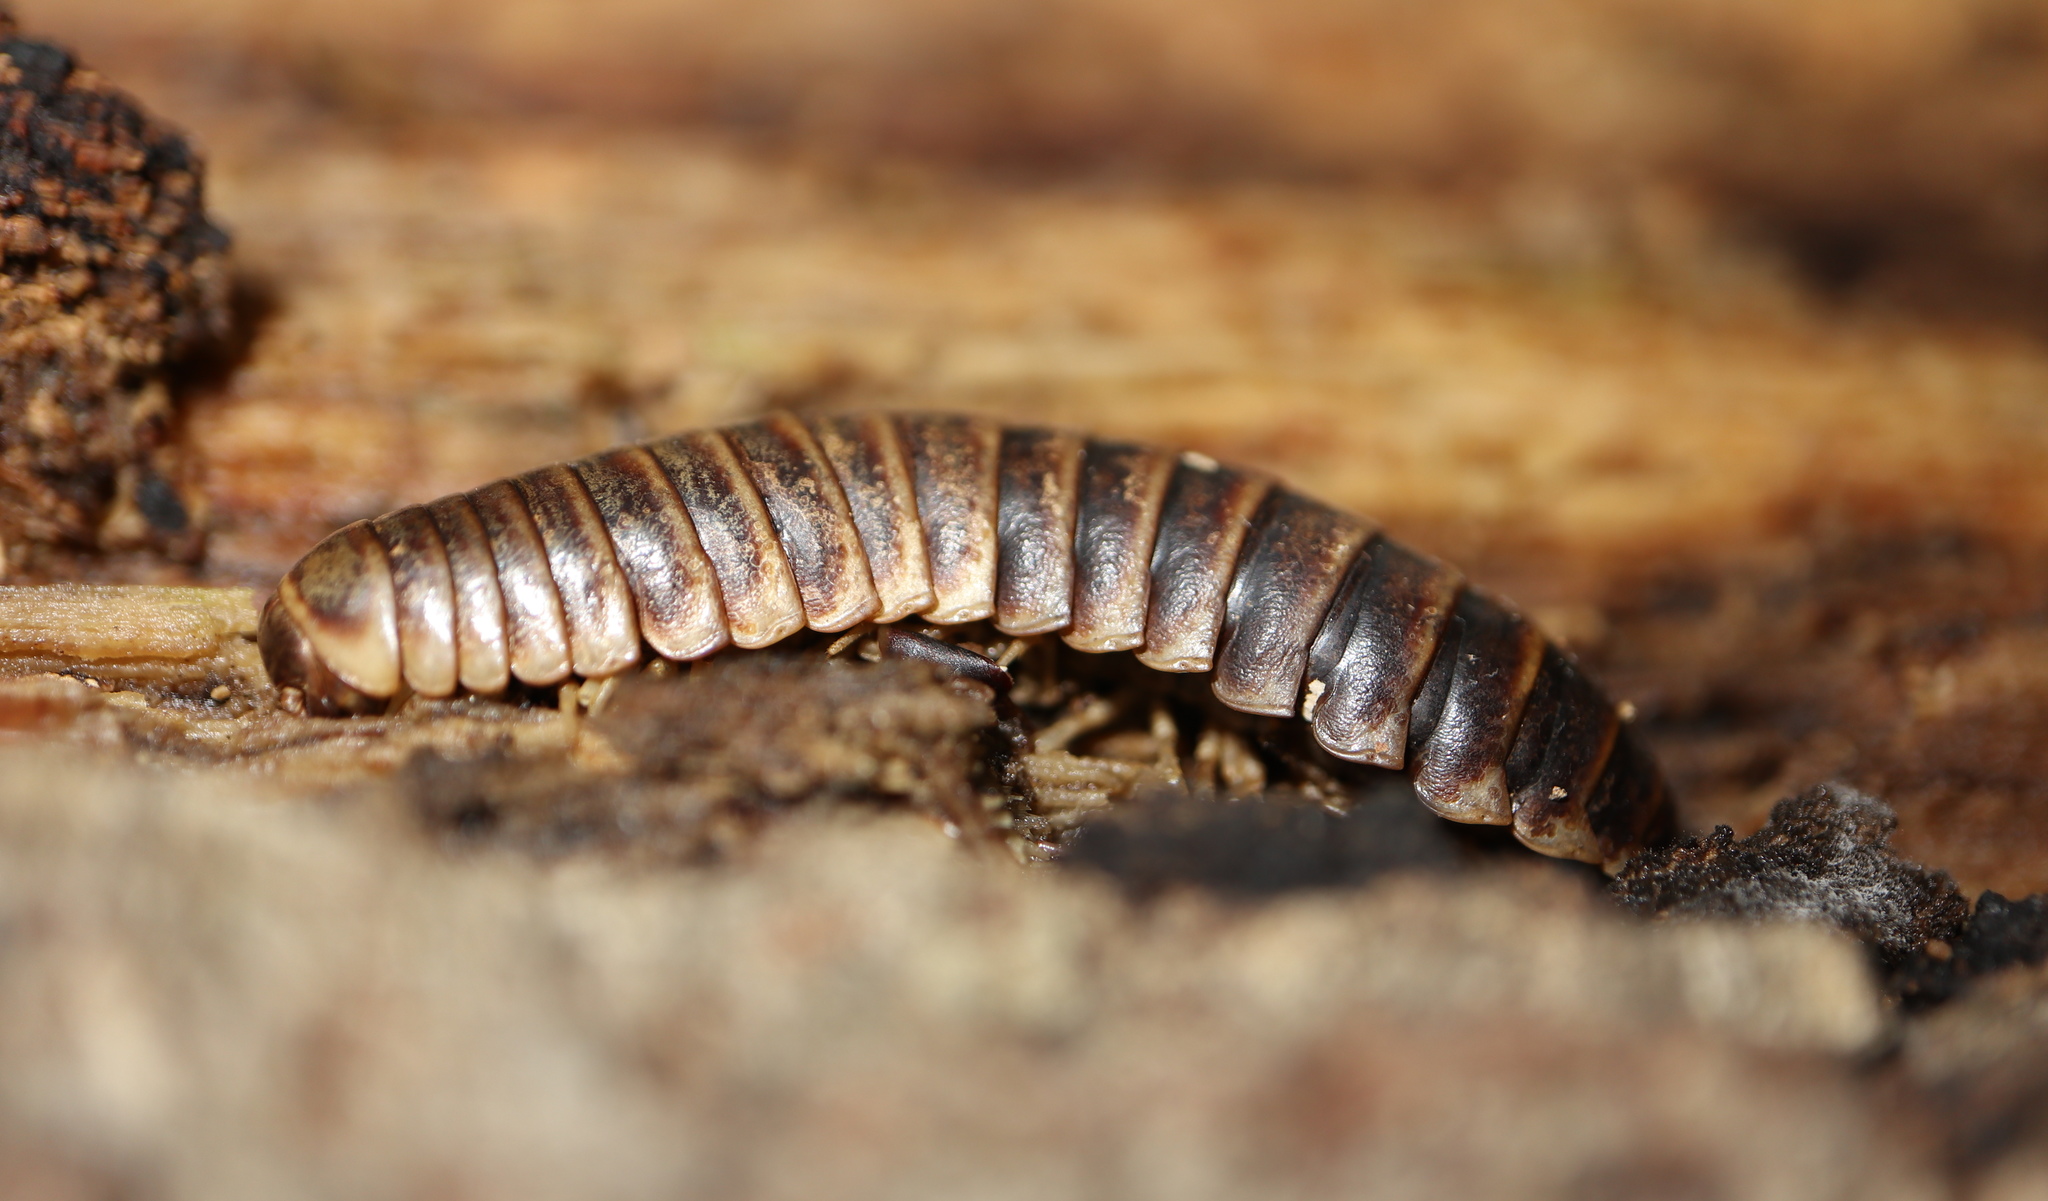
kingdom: Animalia
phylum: Arthropoda
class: Diplopoda
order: Polydesmida
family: Xystodesmidae
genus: Apheloria
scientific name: Apheloria virginiensis
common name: Black-and-gold flat millipede
